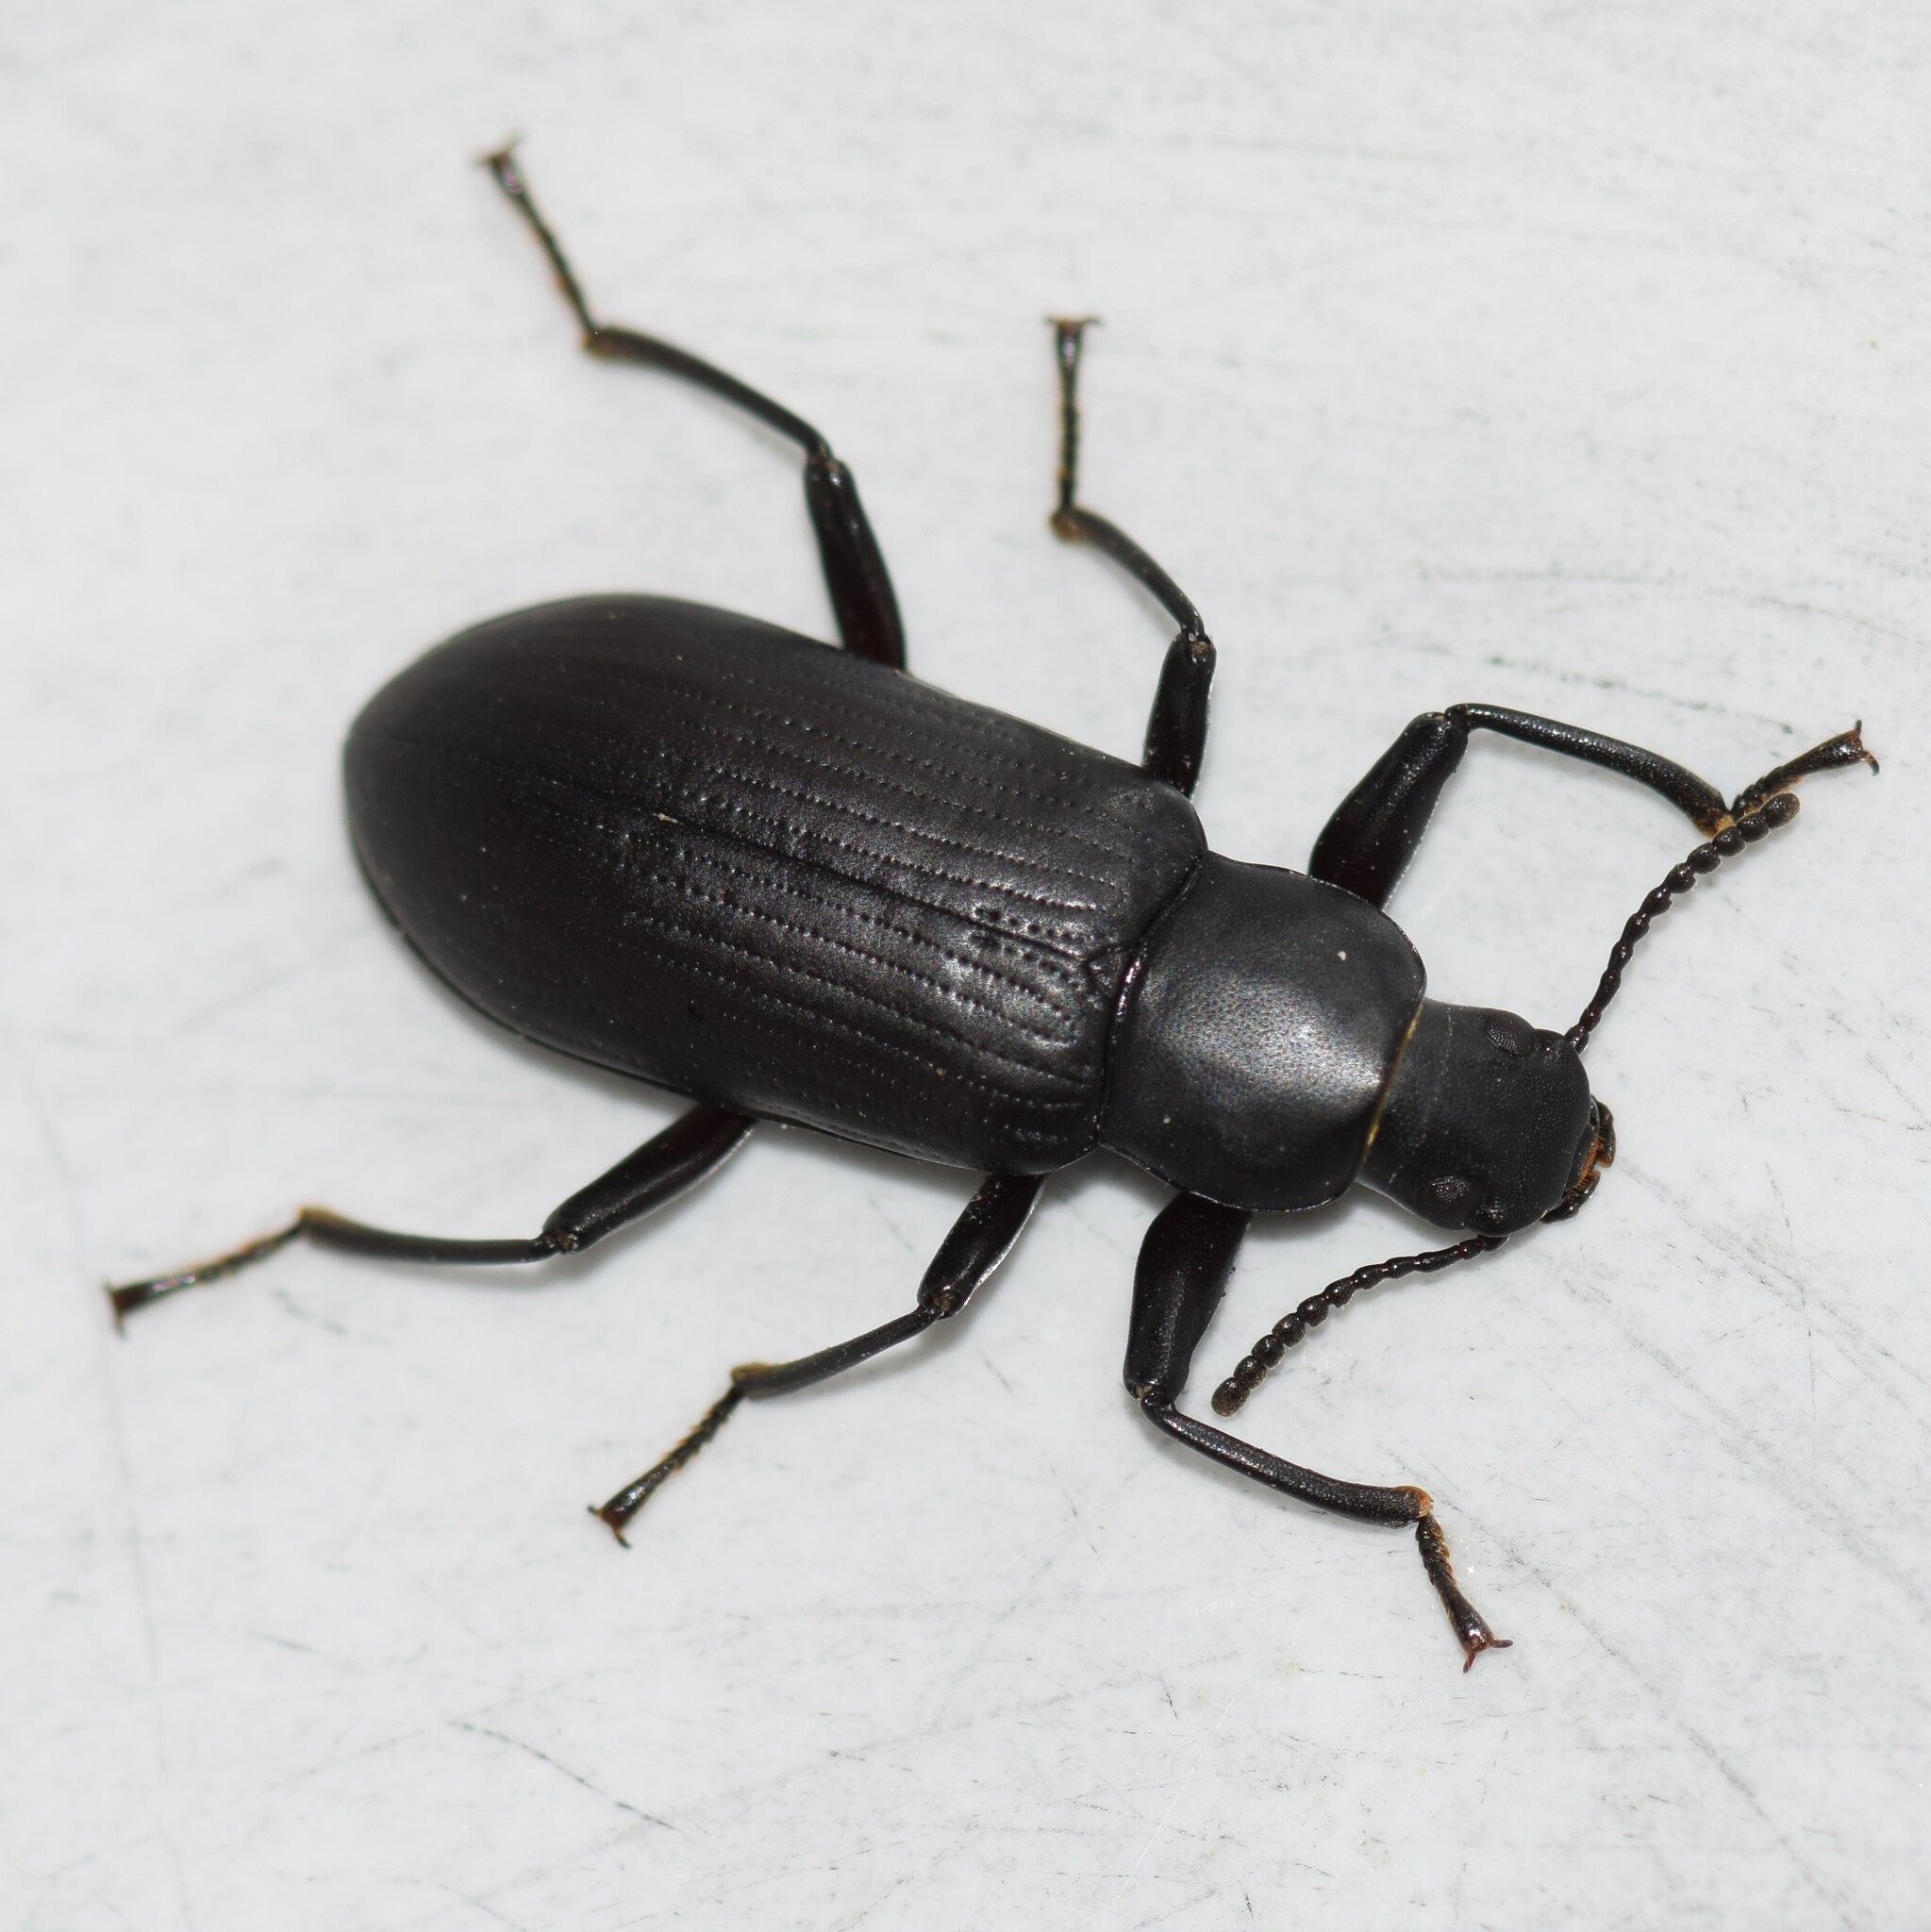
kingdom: Animalia
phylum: Arthropoda
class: Insecta
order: Coleoptera
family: Tenebrionidae
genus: Alobates
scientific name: Alobates pensylvanicus
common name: False mealworm beetle
